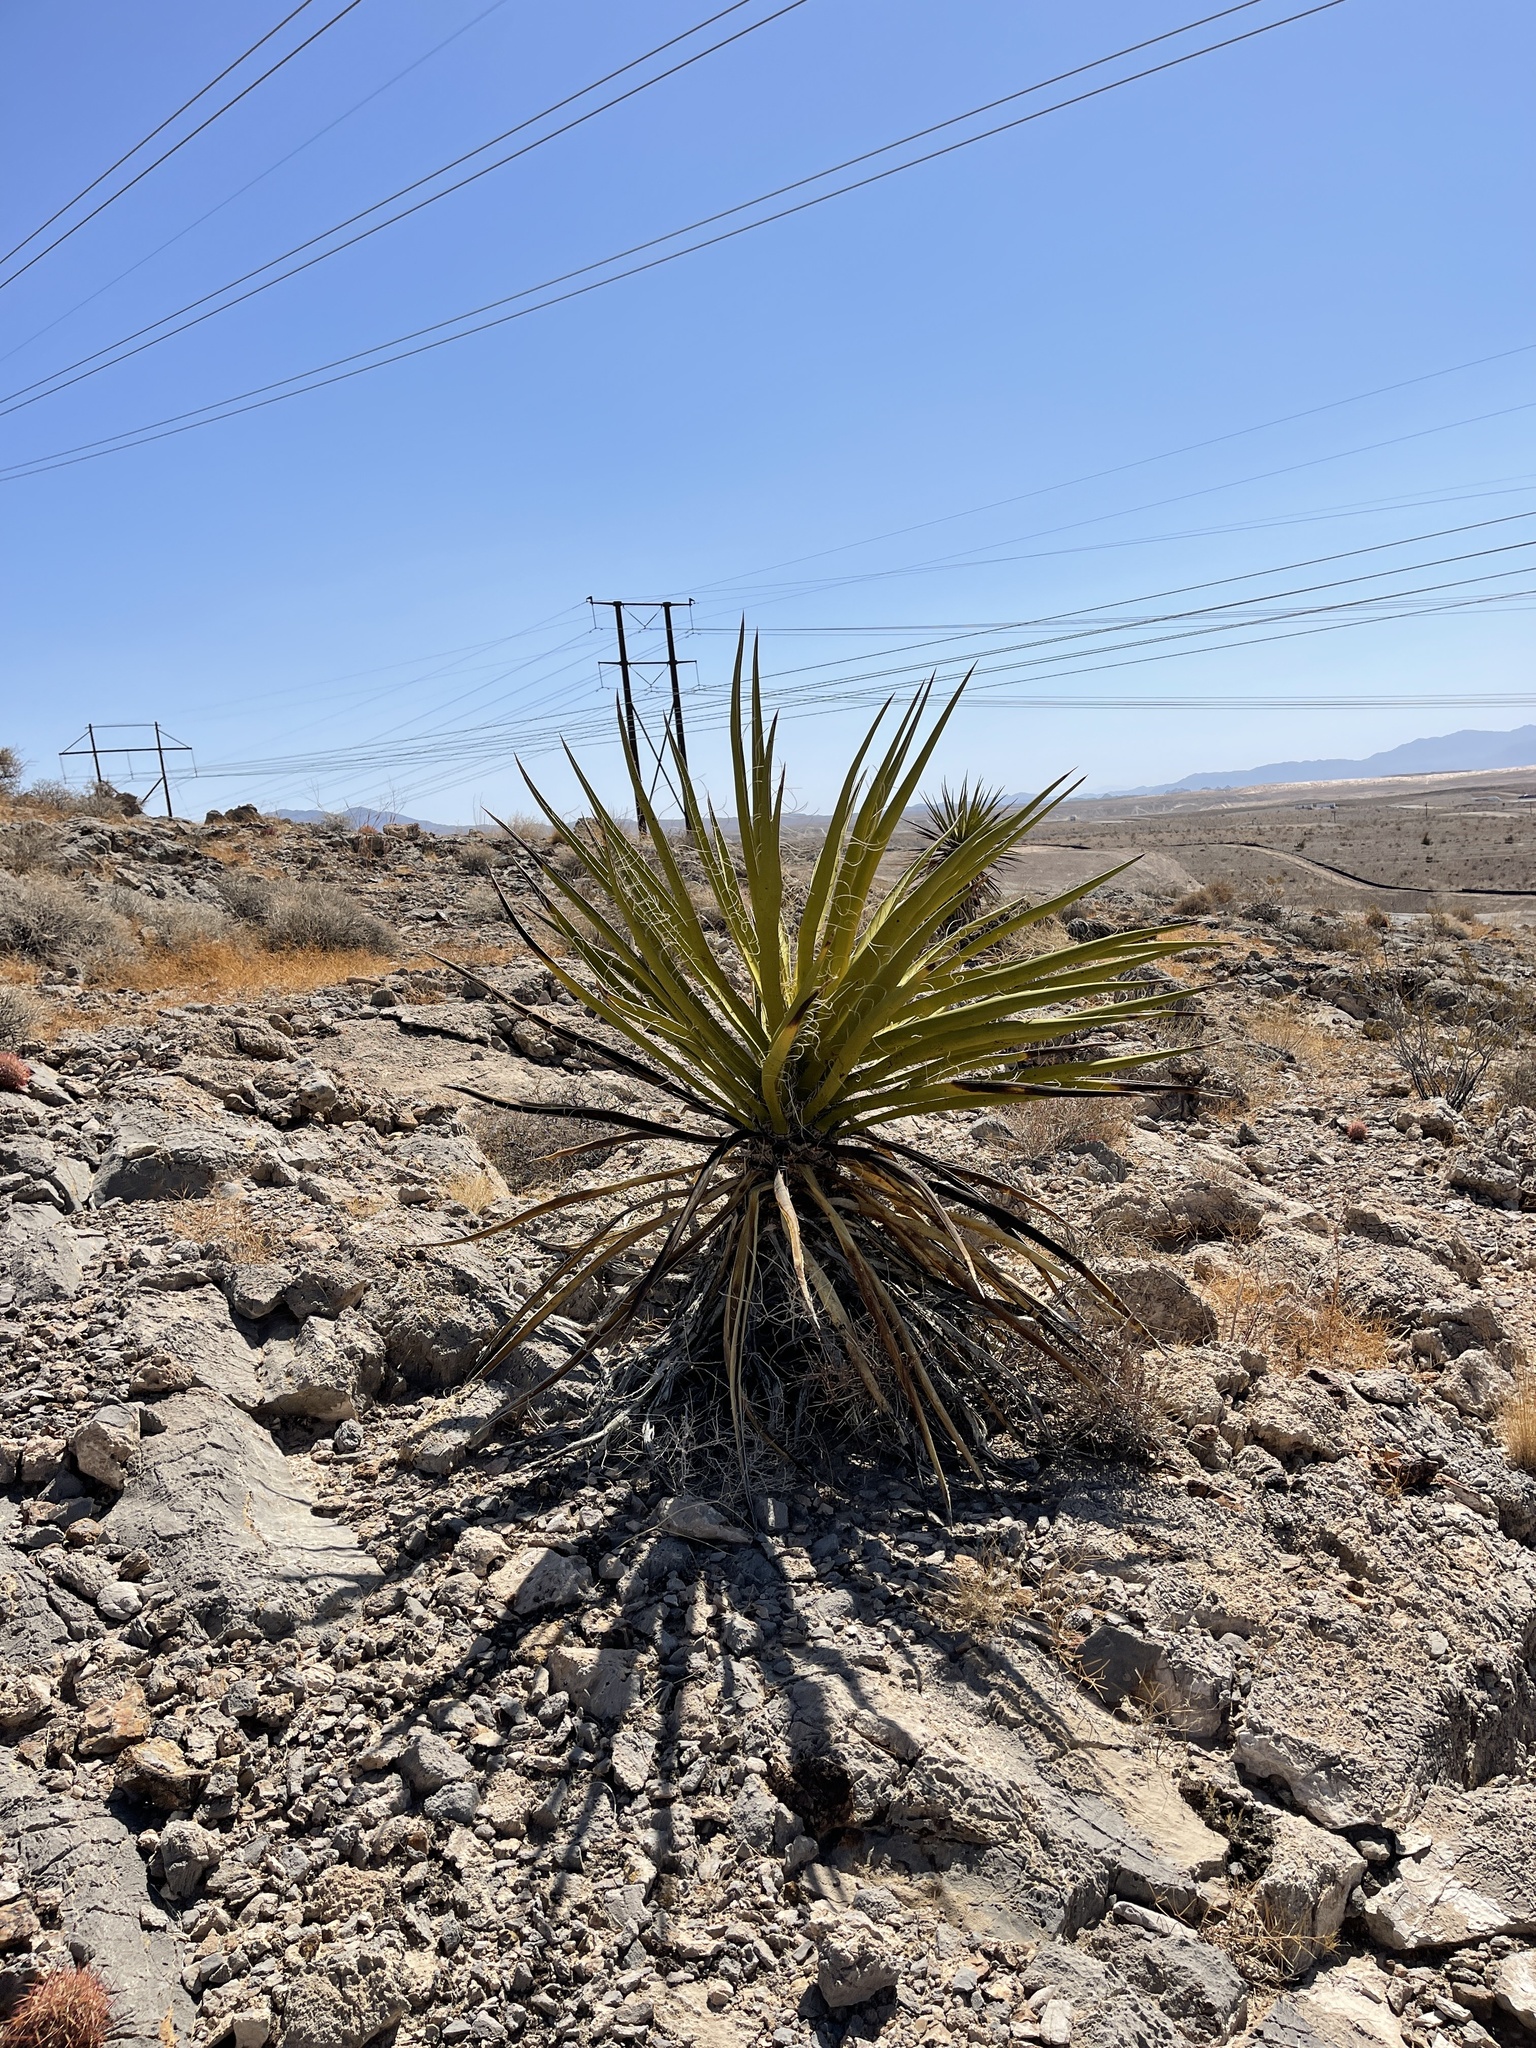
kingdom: Plantae
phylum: Tracheophyta
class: Liliopsida
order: Asparagales
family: Asparagaceae
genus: Yucca
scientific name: Yucca schidigera
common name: Mojave yucca
